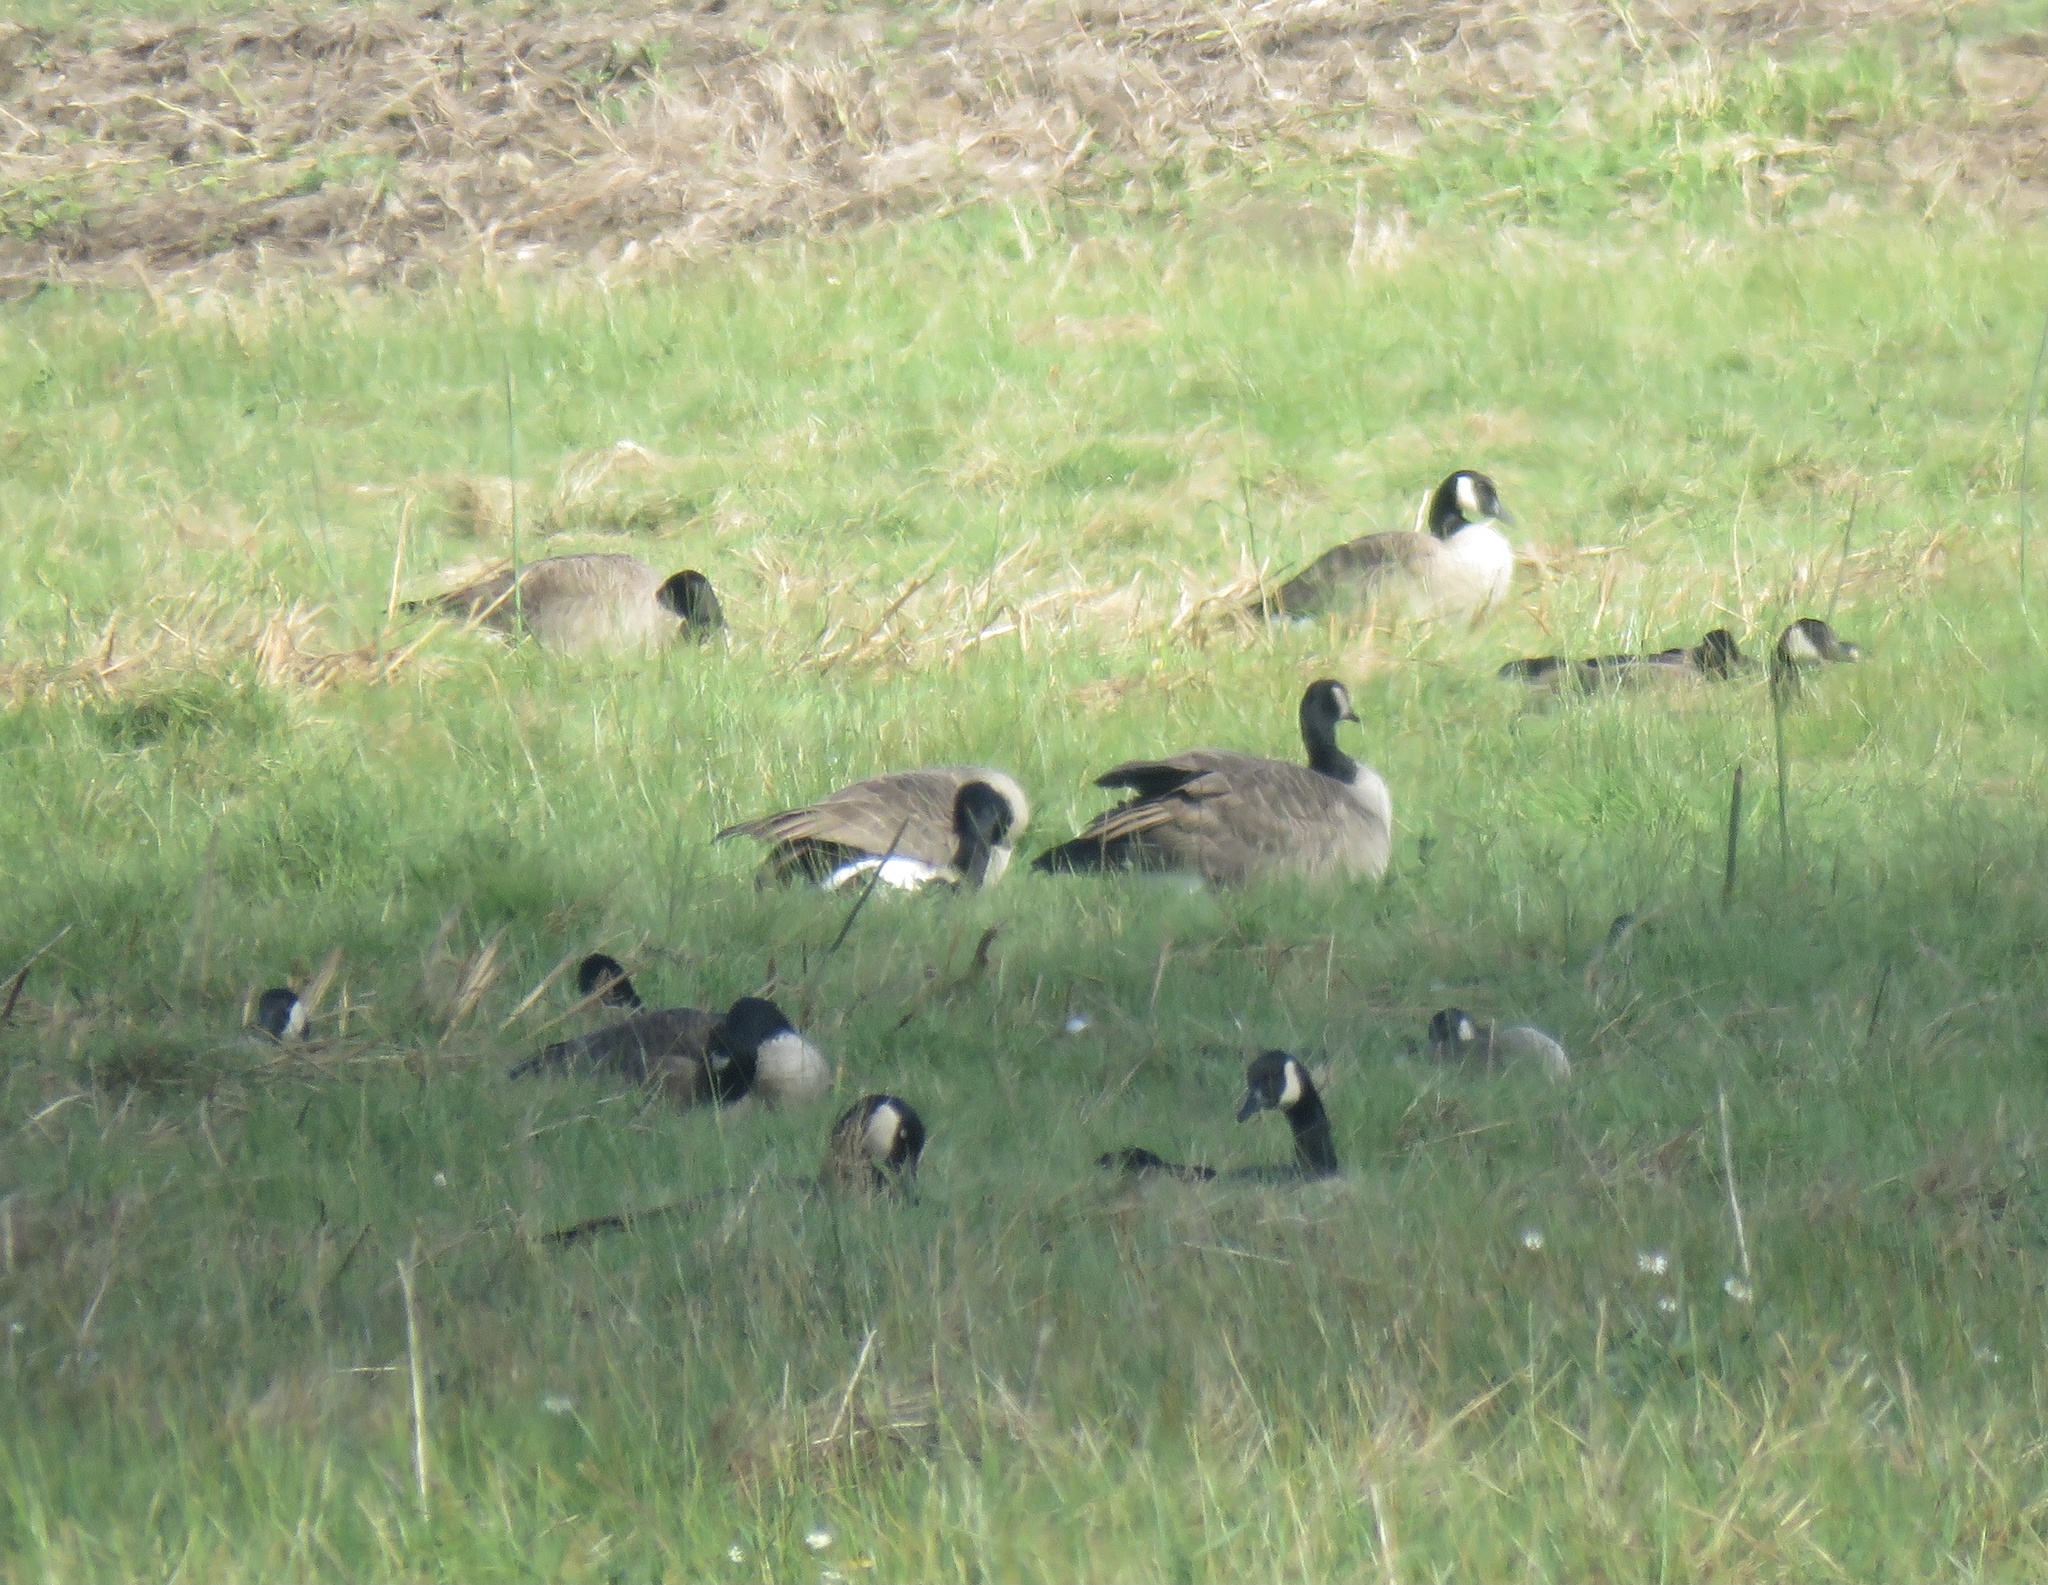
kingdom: Animalia
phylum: Chordata
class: Aves
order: Anseriformes
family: Anatidae
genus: Branta
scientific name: Branta canadensis
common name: Canada goose
